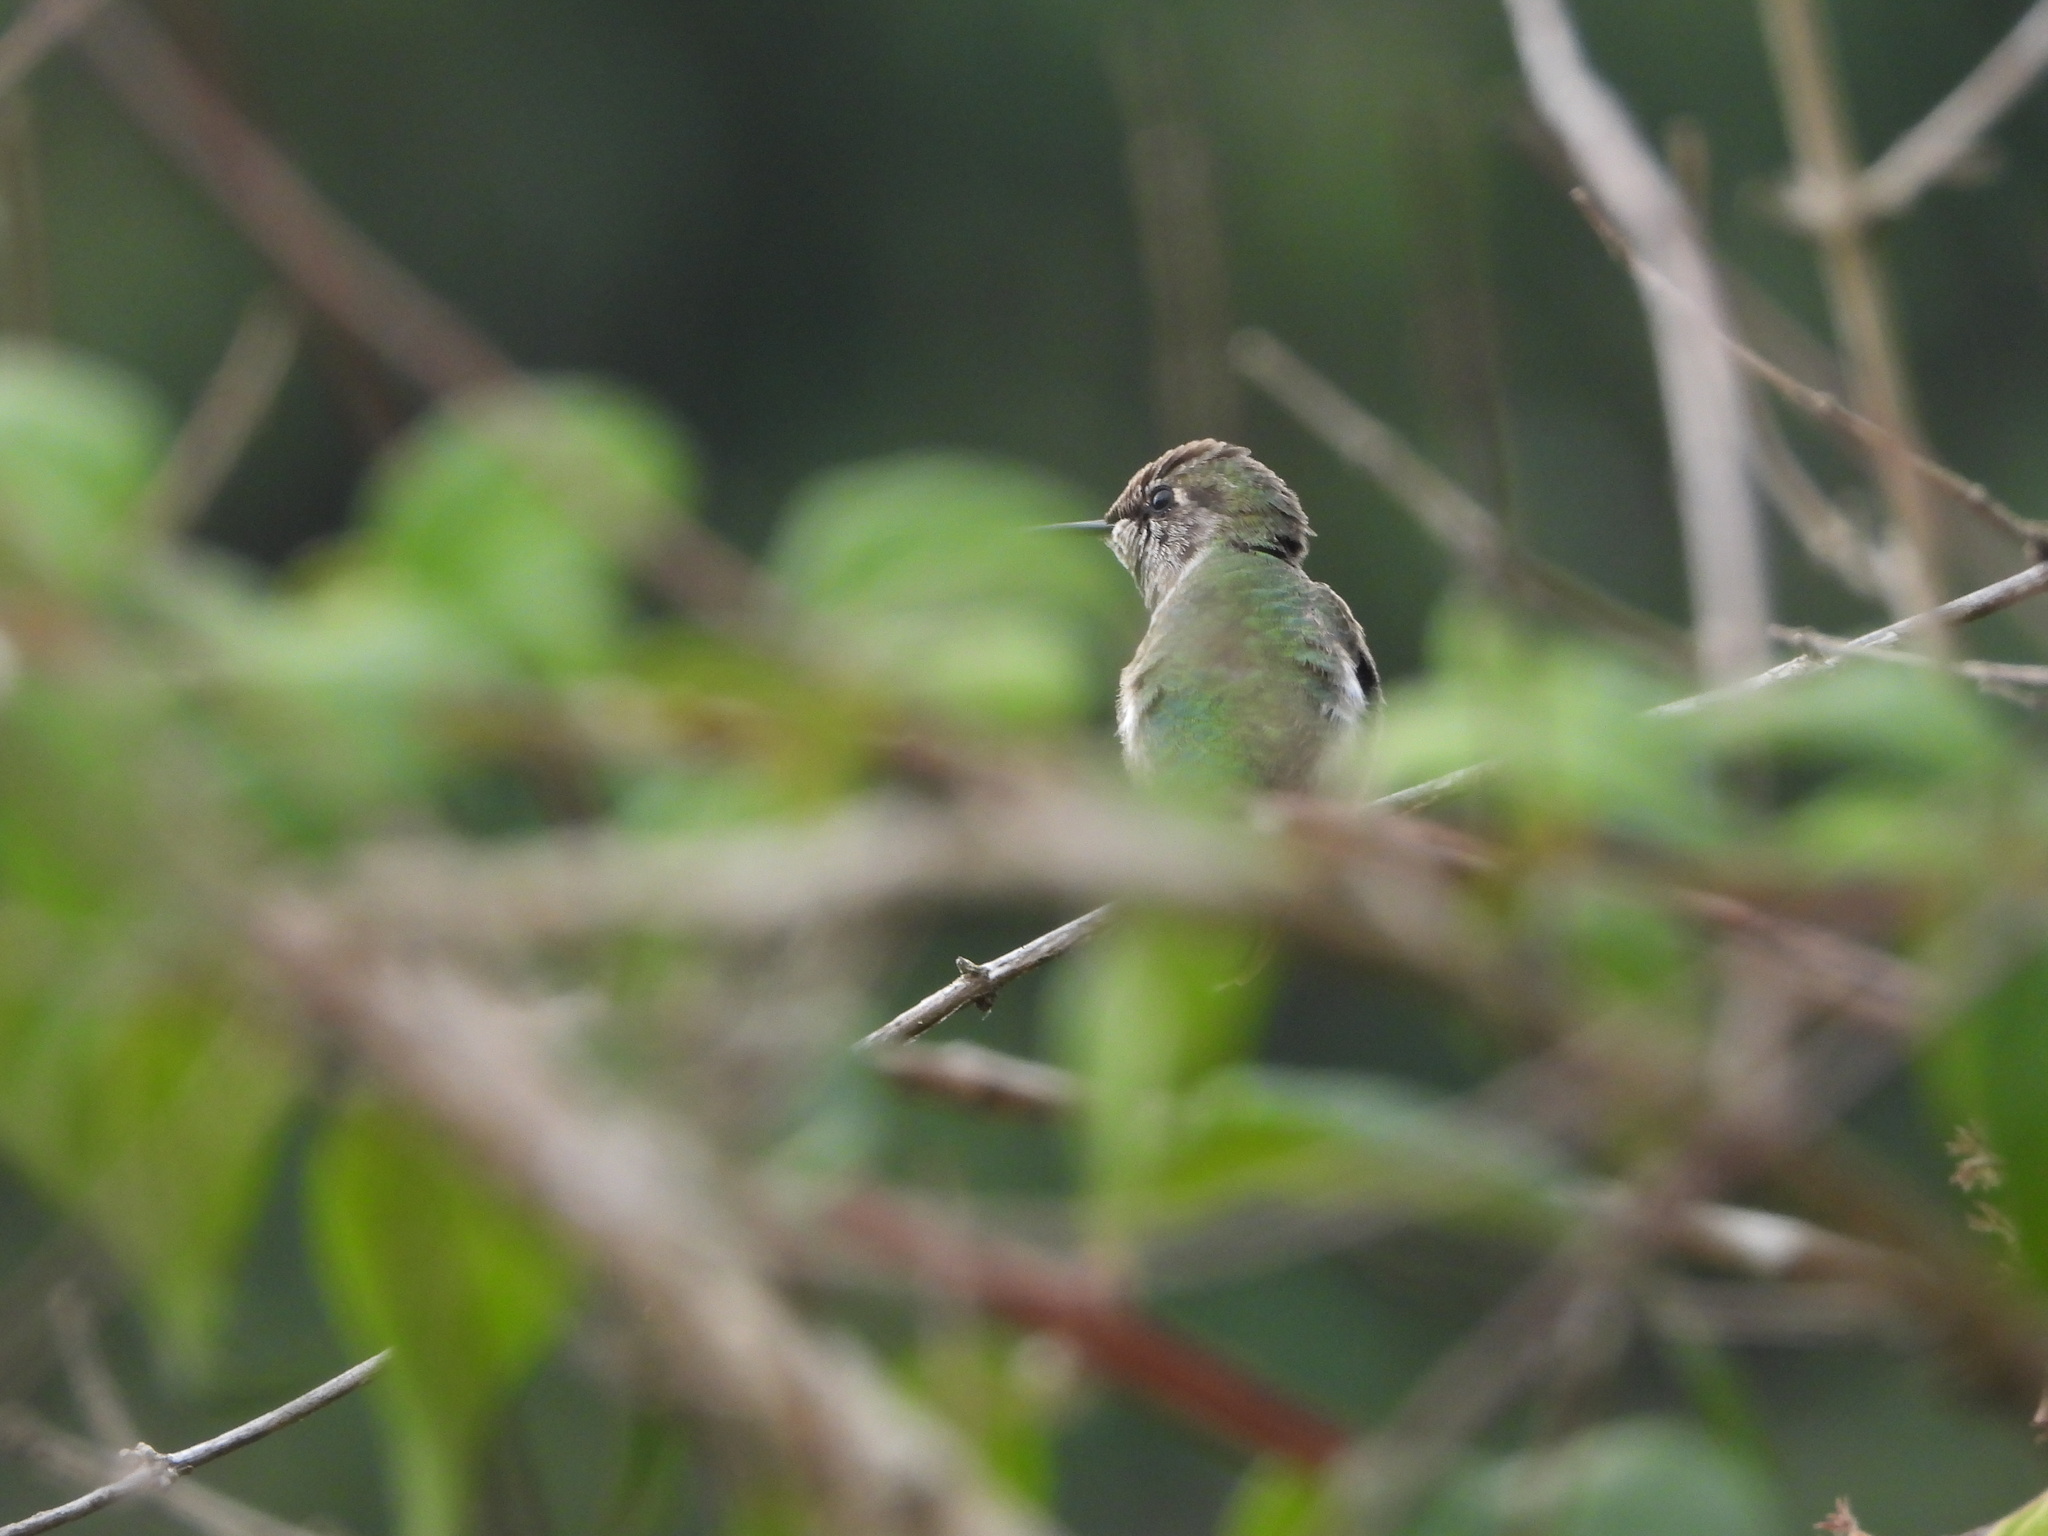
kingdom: Animalia
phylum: Chordata
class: Aves
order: Apodiformes
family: Trochilidae
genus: Calypte
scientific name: Calypte anna
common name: Anna's hummingbird
